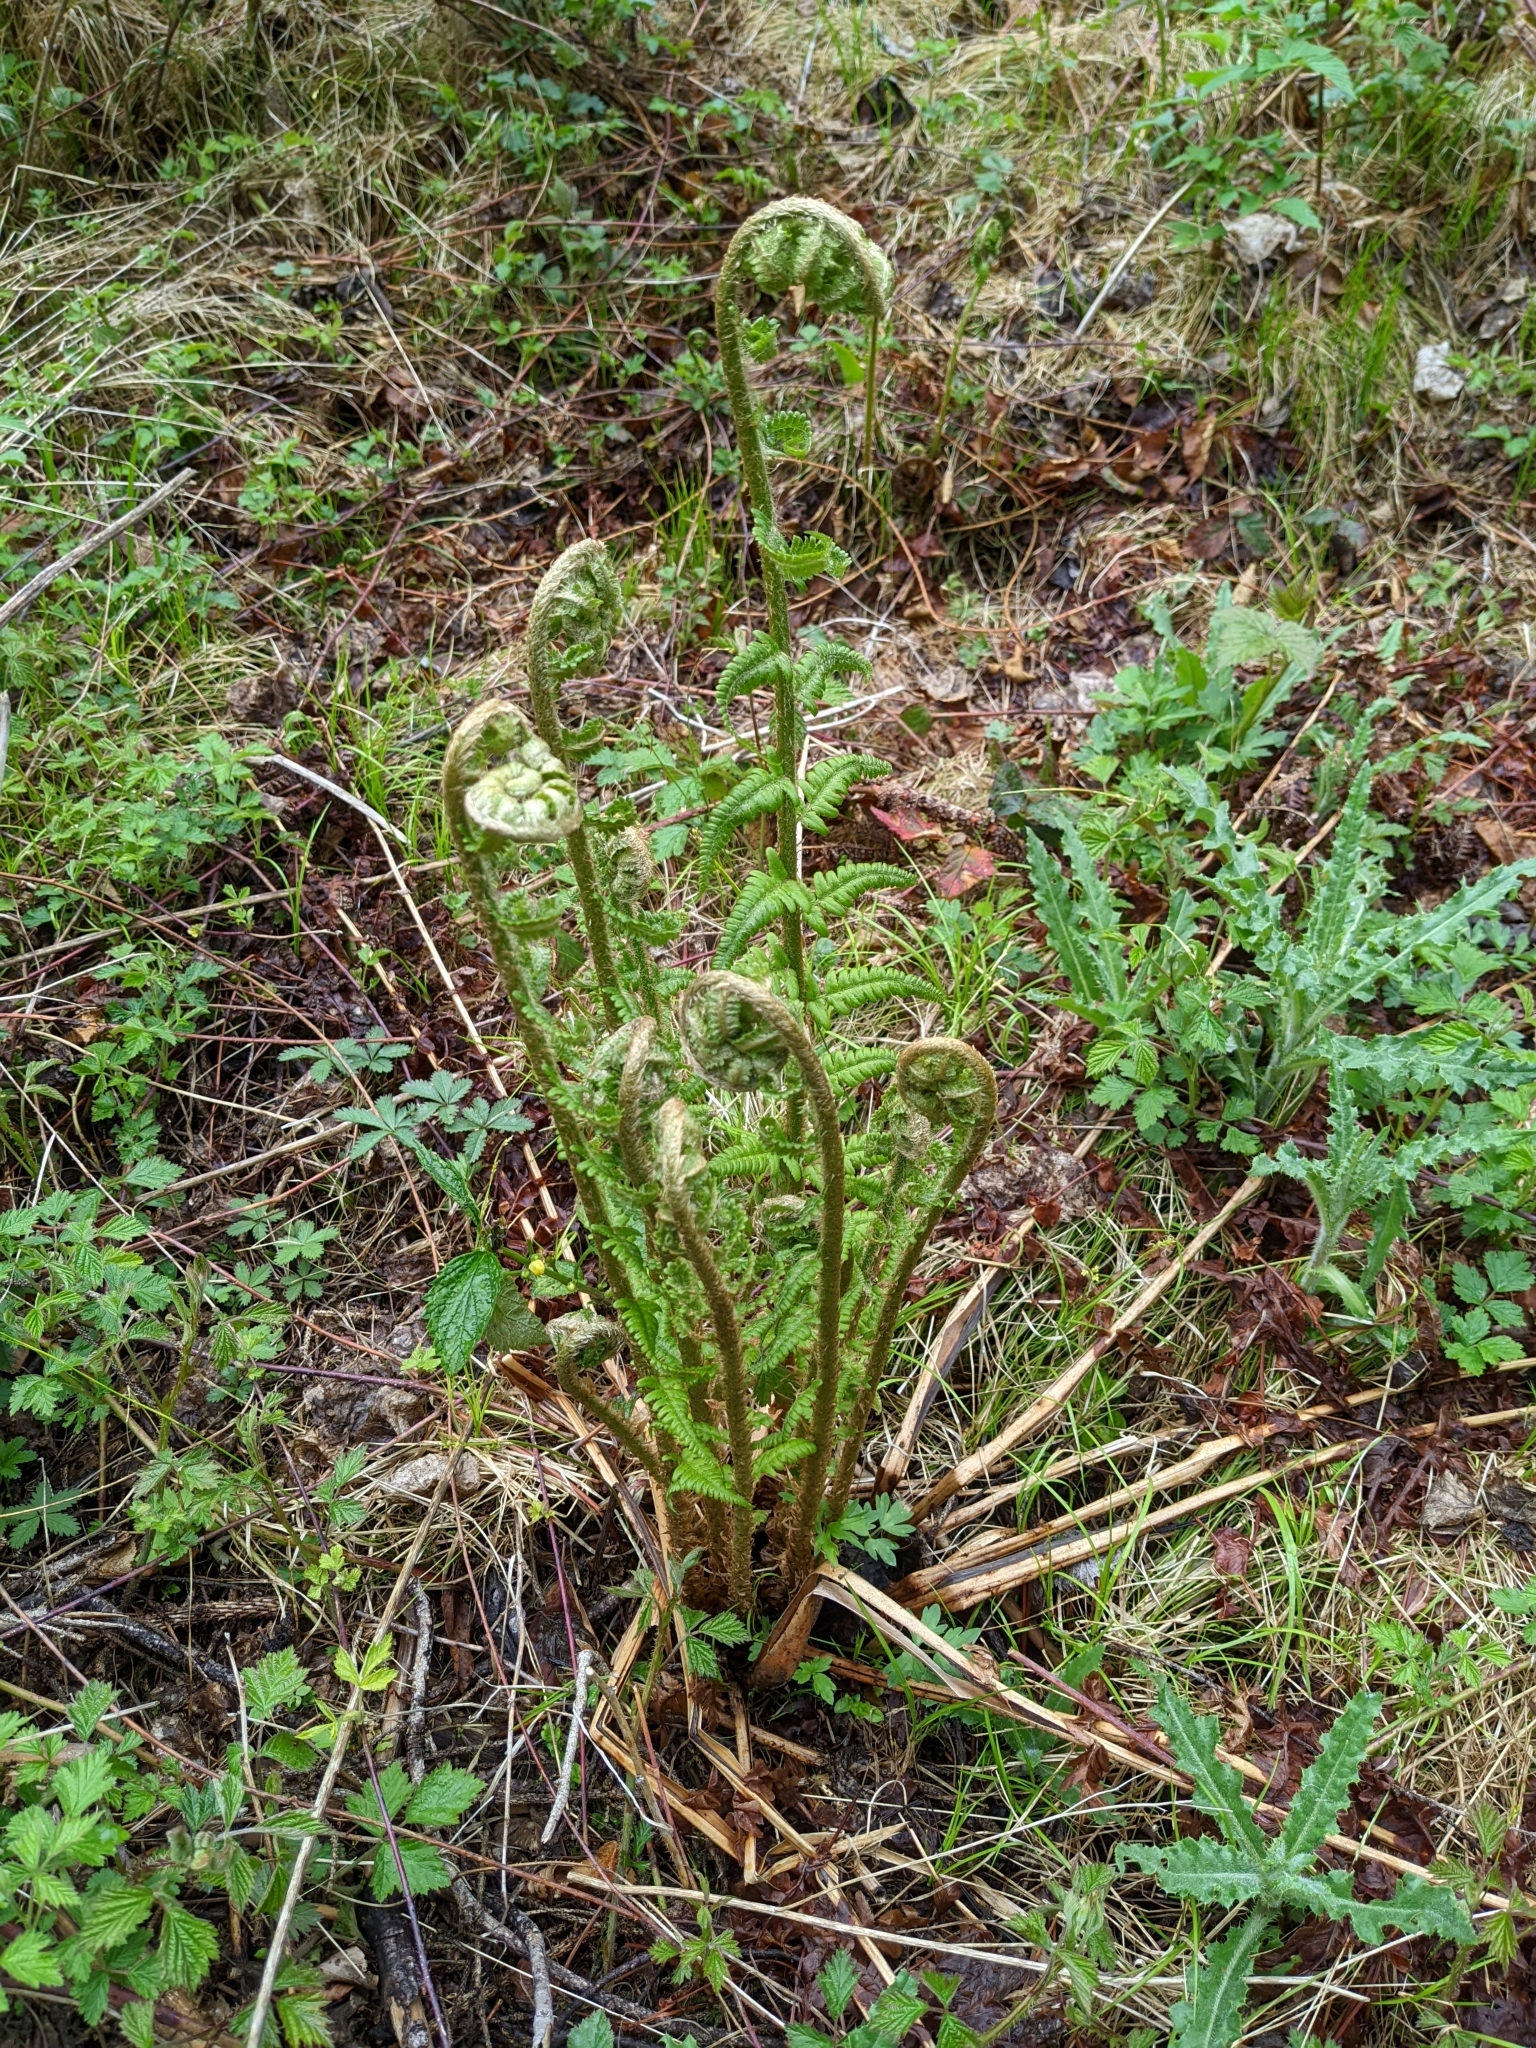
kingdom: Plantae
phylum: Tracheophyta
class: Polypodiopsida
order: Polypodiales
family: Dryopteridaceae
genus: Dryopteris
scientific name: Dryopteris filix-mas
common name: Male fern
